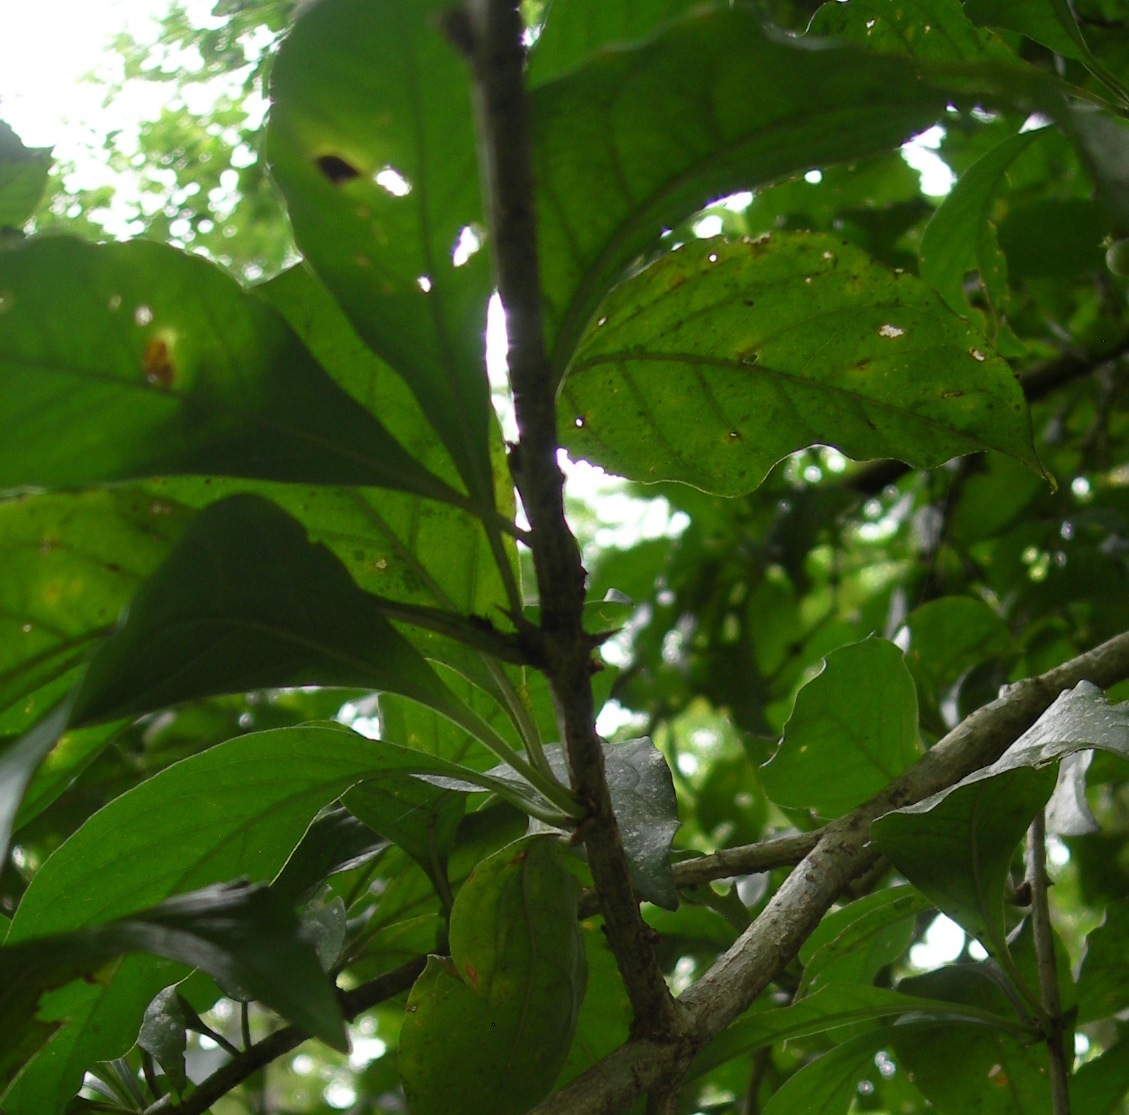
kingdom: Plantae
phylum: Tracheophyta
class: Magnoliopsida
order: Gentianales
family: Rubiaceae
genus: Randia
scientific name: Randia armata
